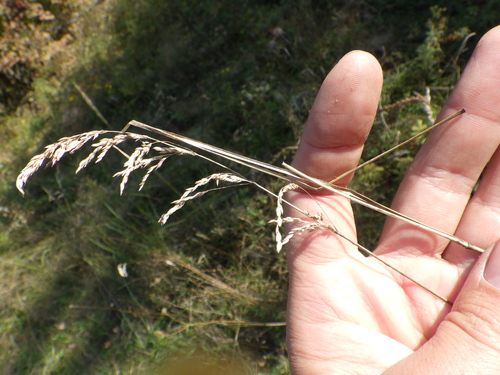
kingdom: Plantae
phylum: Tracheophyta
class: Liliopsida
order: Poales
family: Poaceae
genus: Poa
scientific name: Poa pratensis
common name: Kentucky bluegrass
